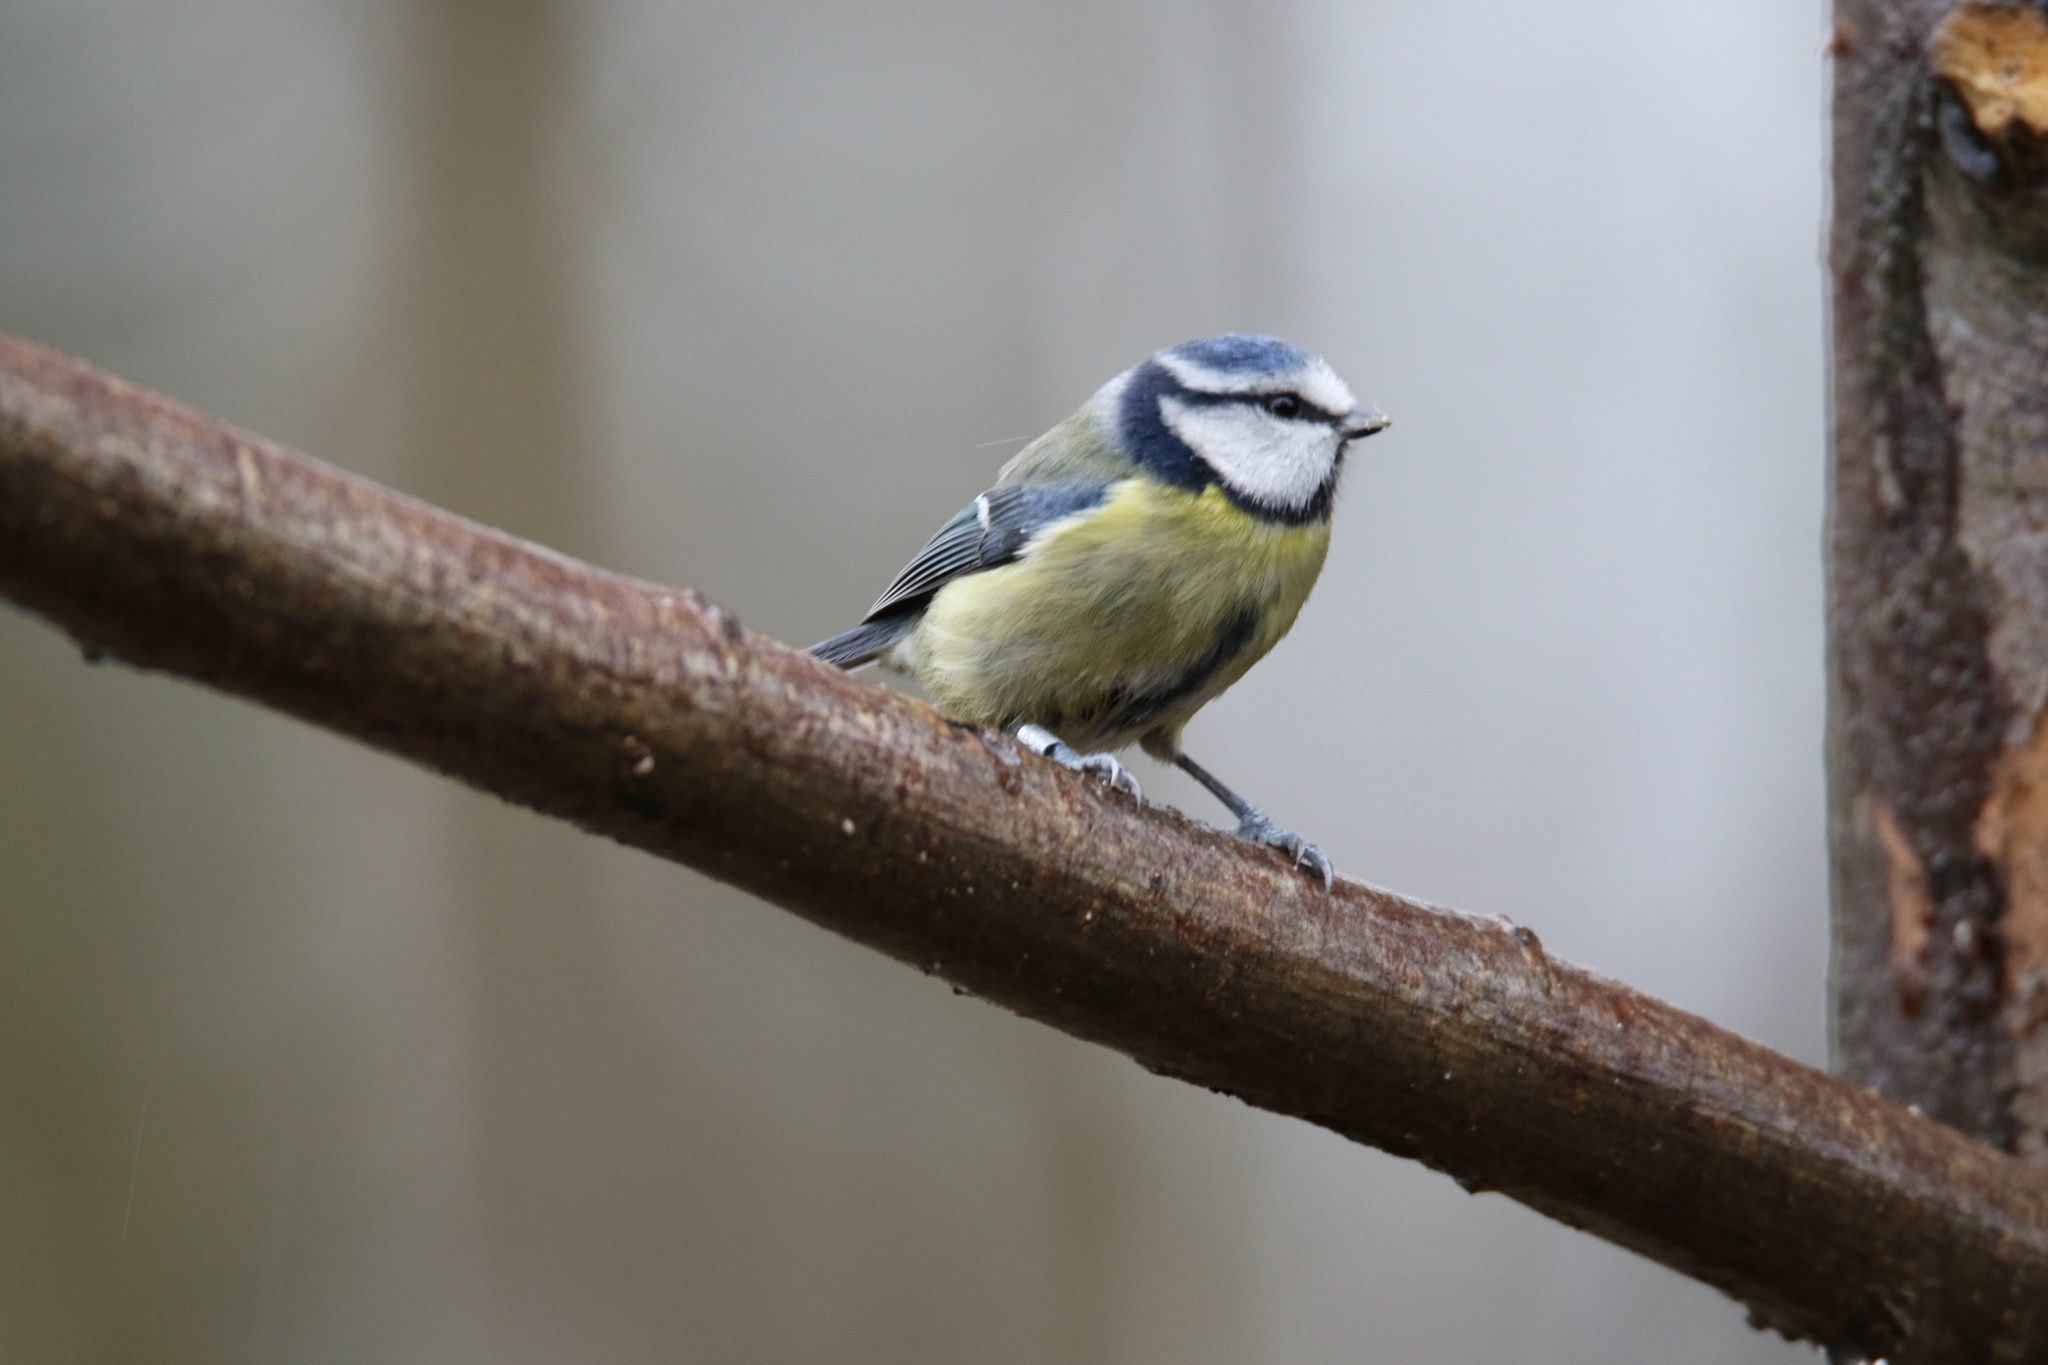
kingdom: Animalia
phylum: Chordata
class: Aves
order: Passeriformes
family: Paridae
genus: Cyanistes
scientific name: Cyanistes caeruleus
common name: Eurasian blue tit
